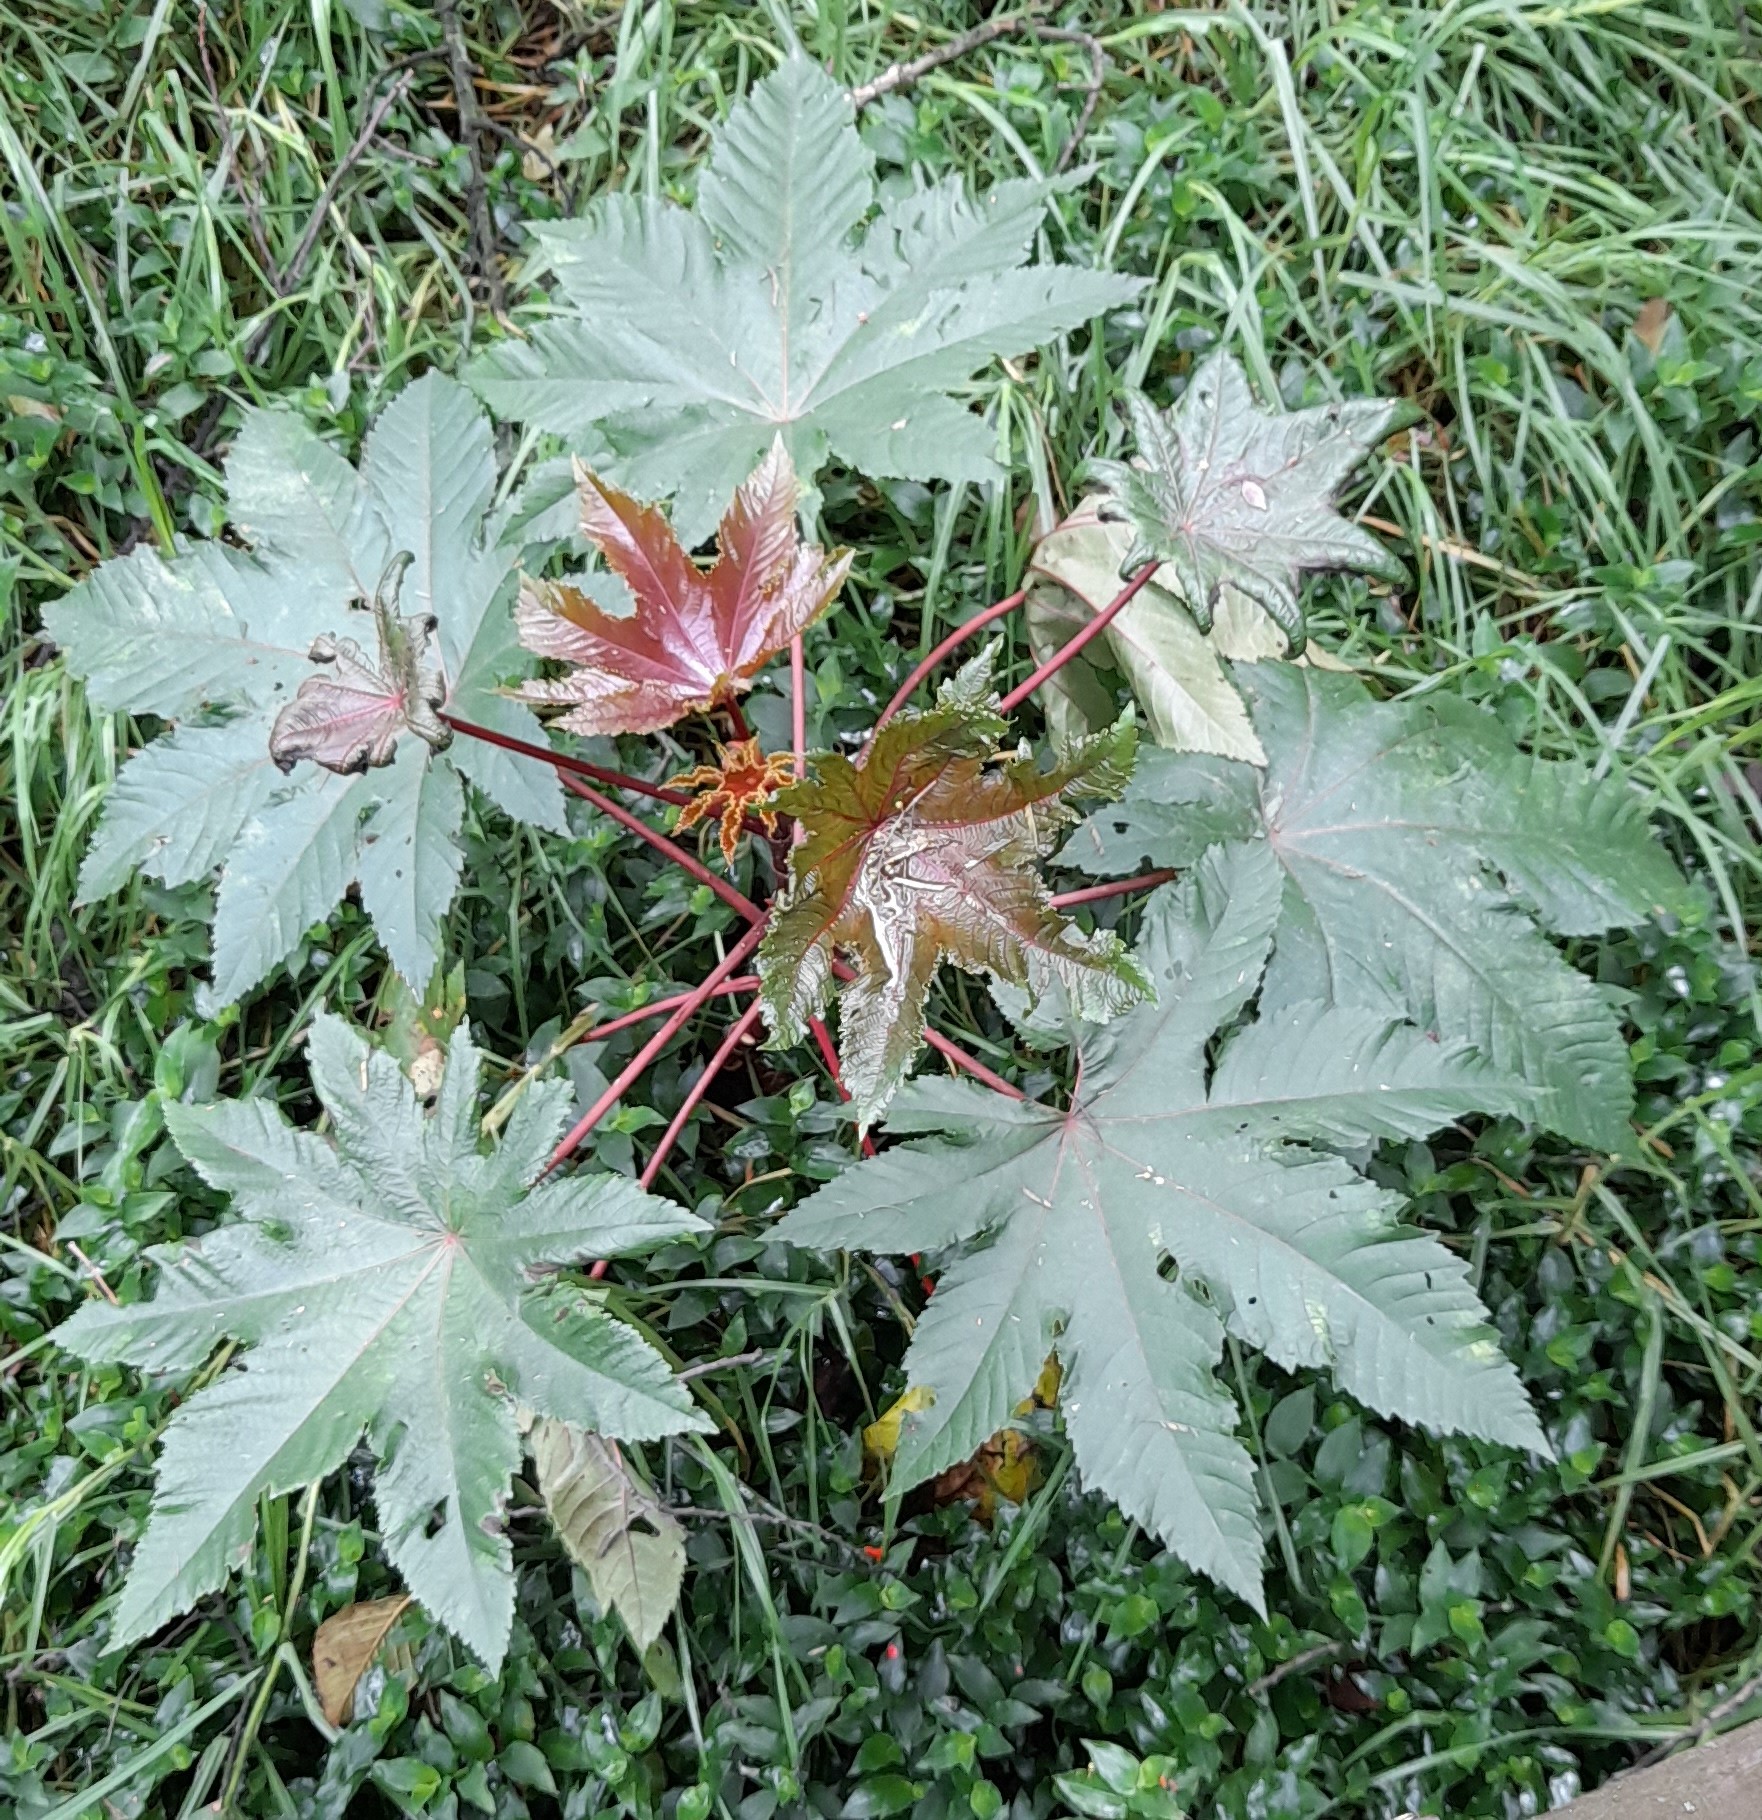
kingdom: Plantae
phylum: Tracheophyta
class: Magnoliopsida
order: Malpighiales
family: Euphorbiaceae
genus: Ricinus
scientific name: Ricinus communis
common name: Castor-oil-plant
